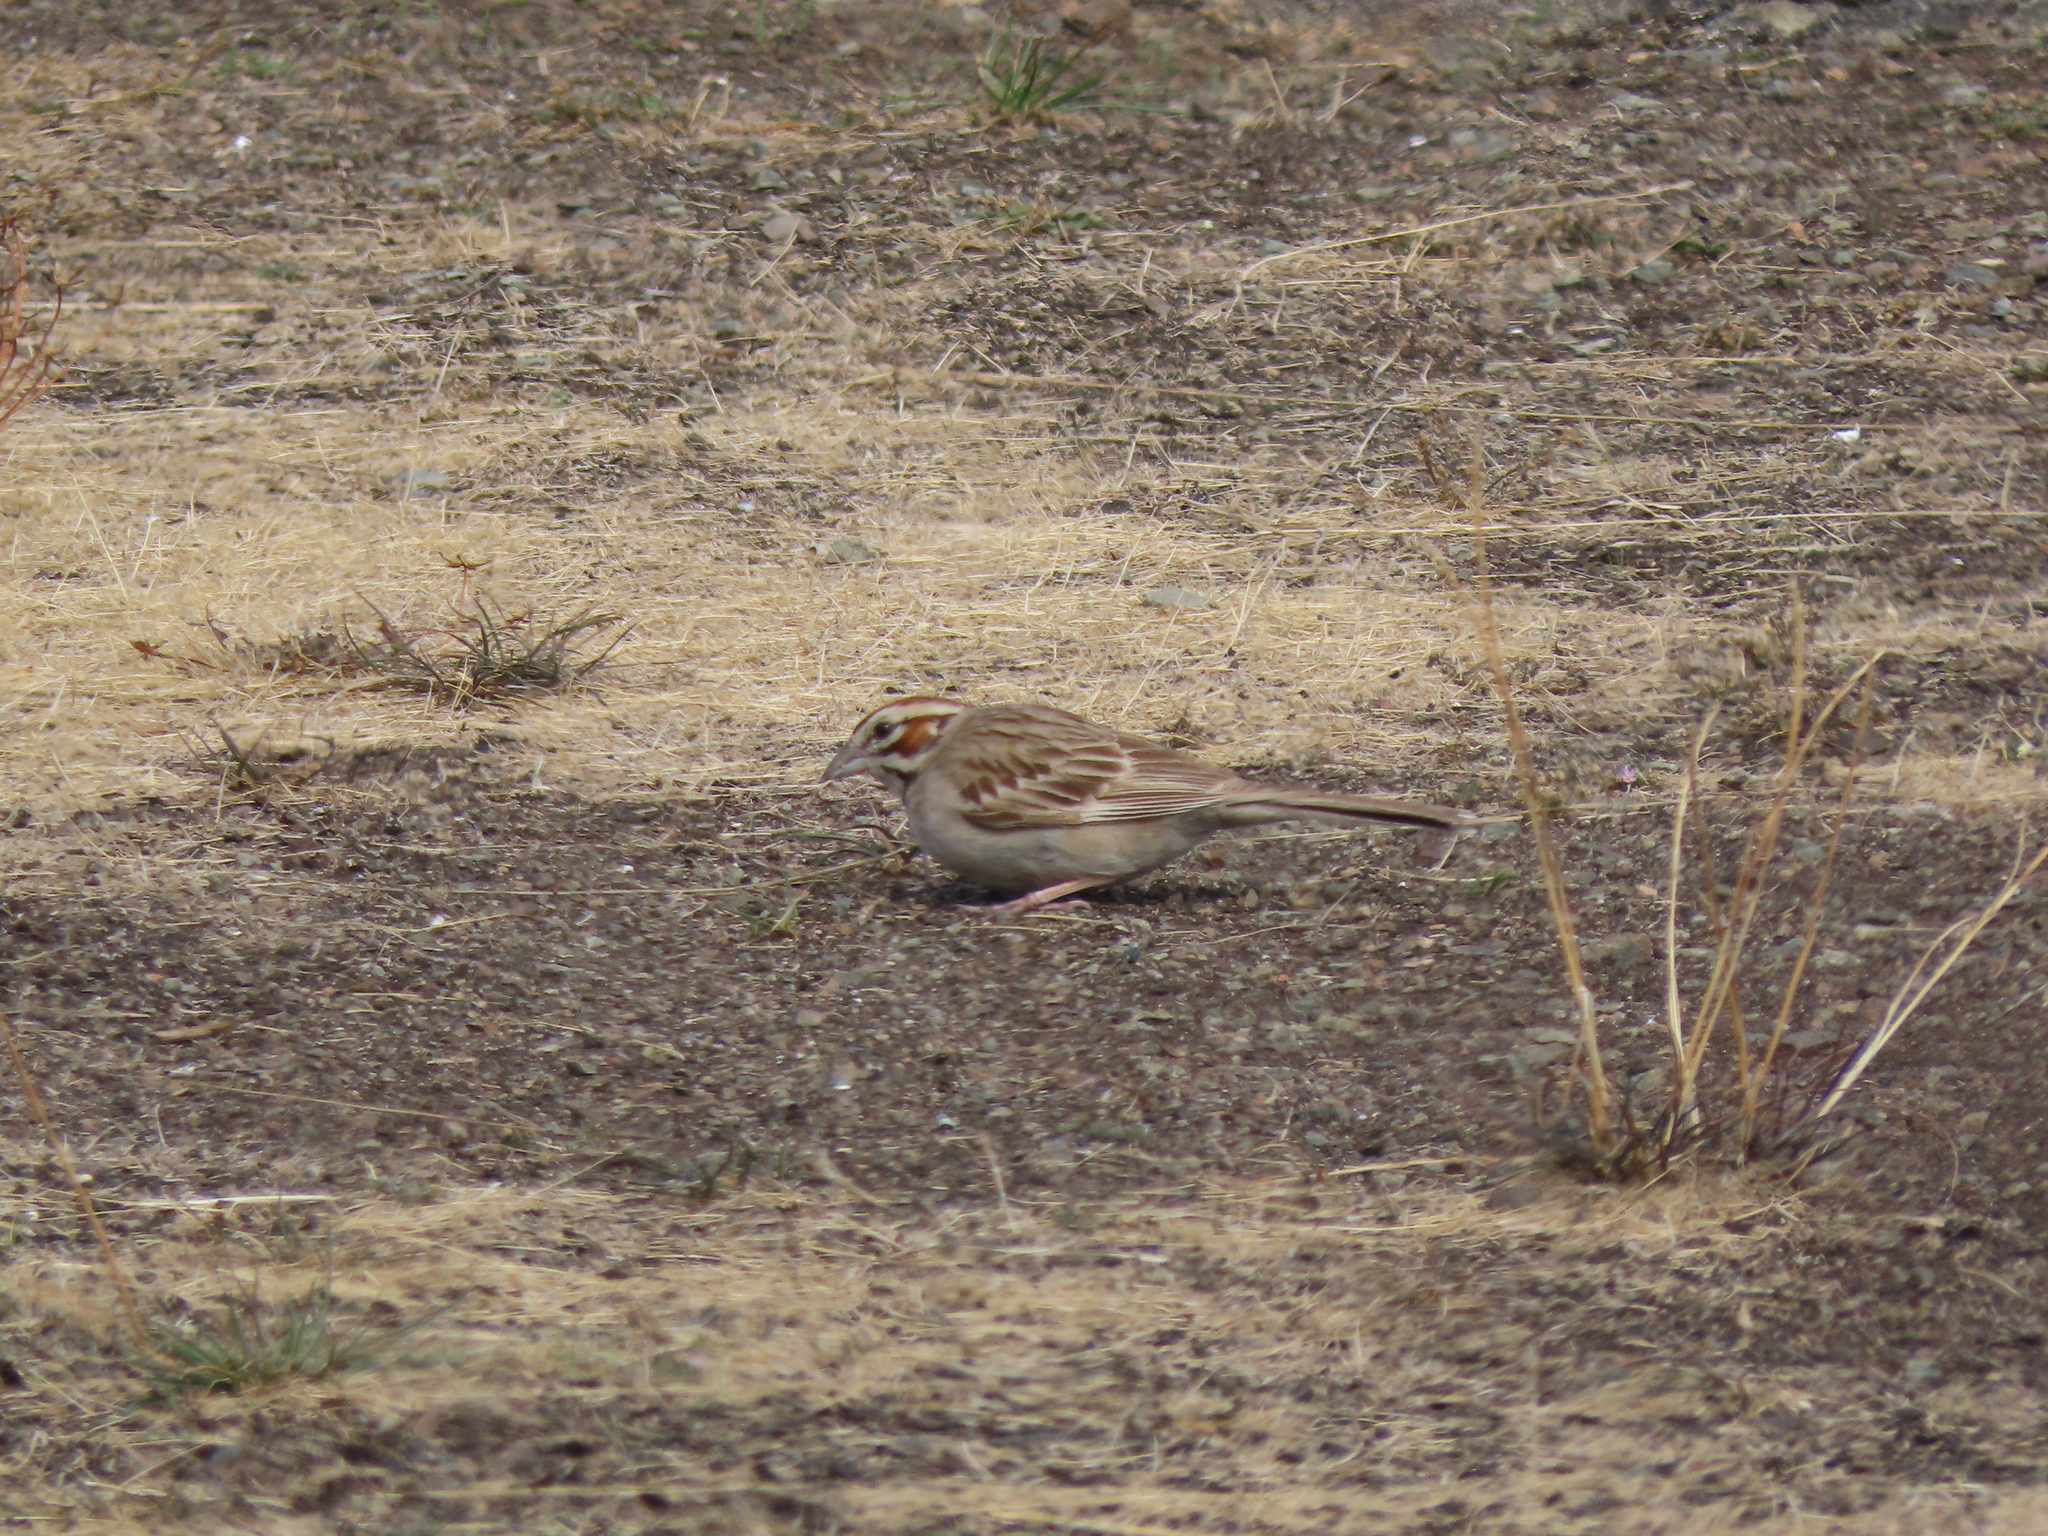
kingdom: Animalia
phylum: Chordata
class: Aves
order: Passeriformes
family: Passerellidae
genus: Chondestes
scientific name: Chondestes grammacus
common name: Lark sparrow
